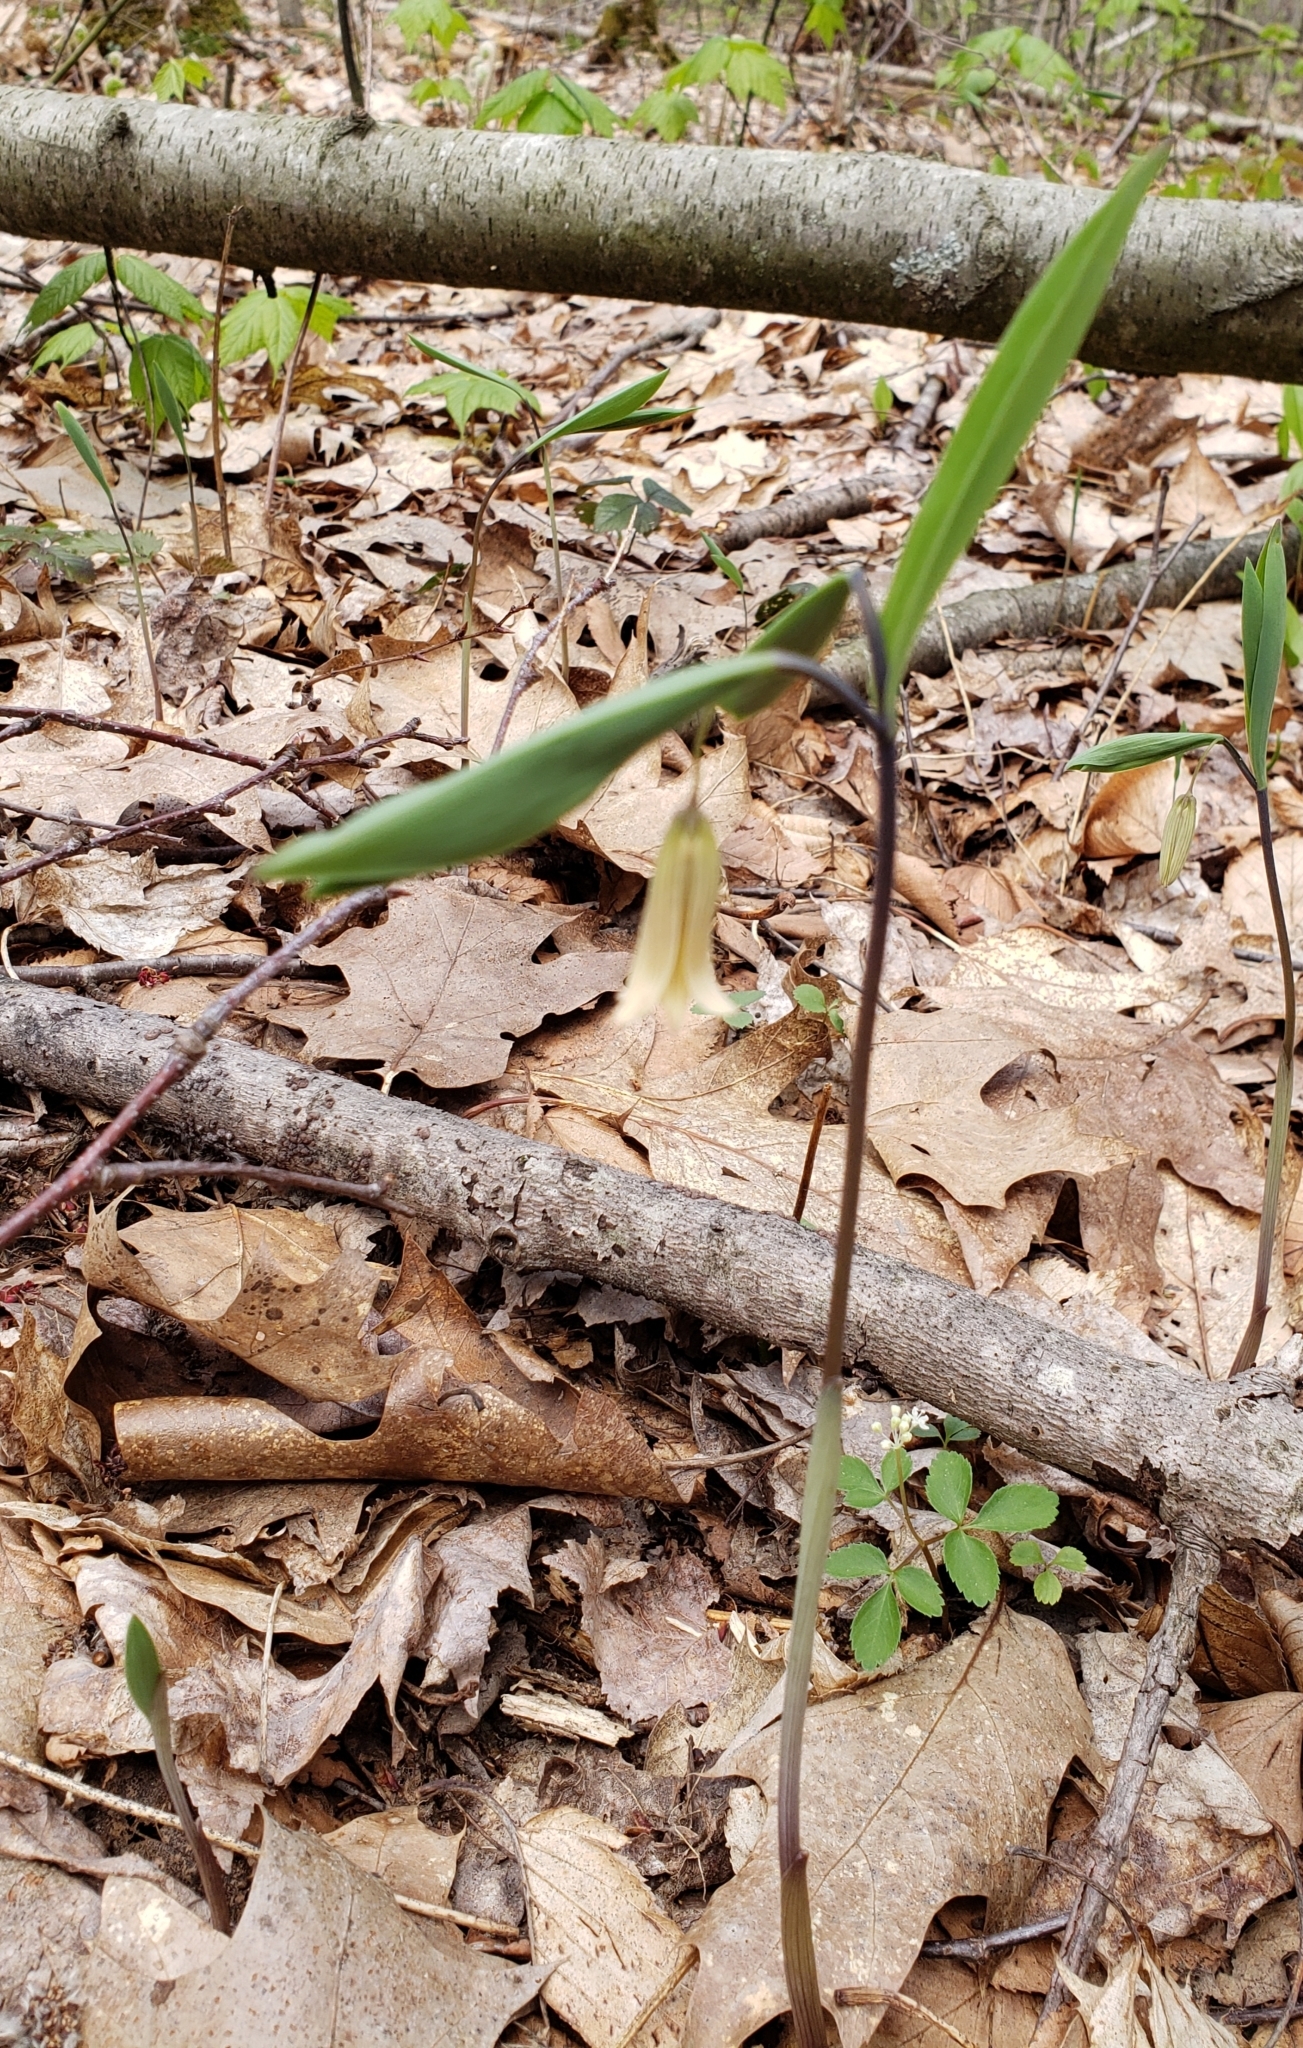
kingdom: Plantae
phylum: Tracheophyta
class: Liliopsida
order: Liliales
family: Colchicaceae
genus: Uvularia
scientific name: Uvularia sessilifolia
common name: Straw-lily
